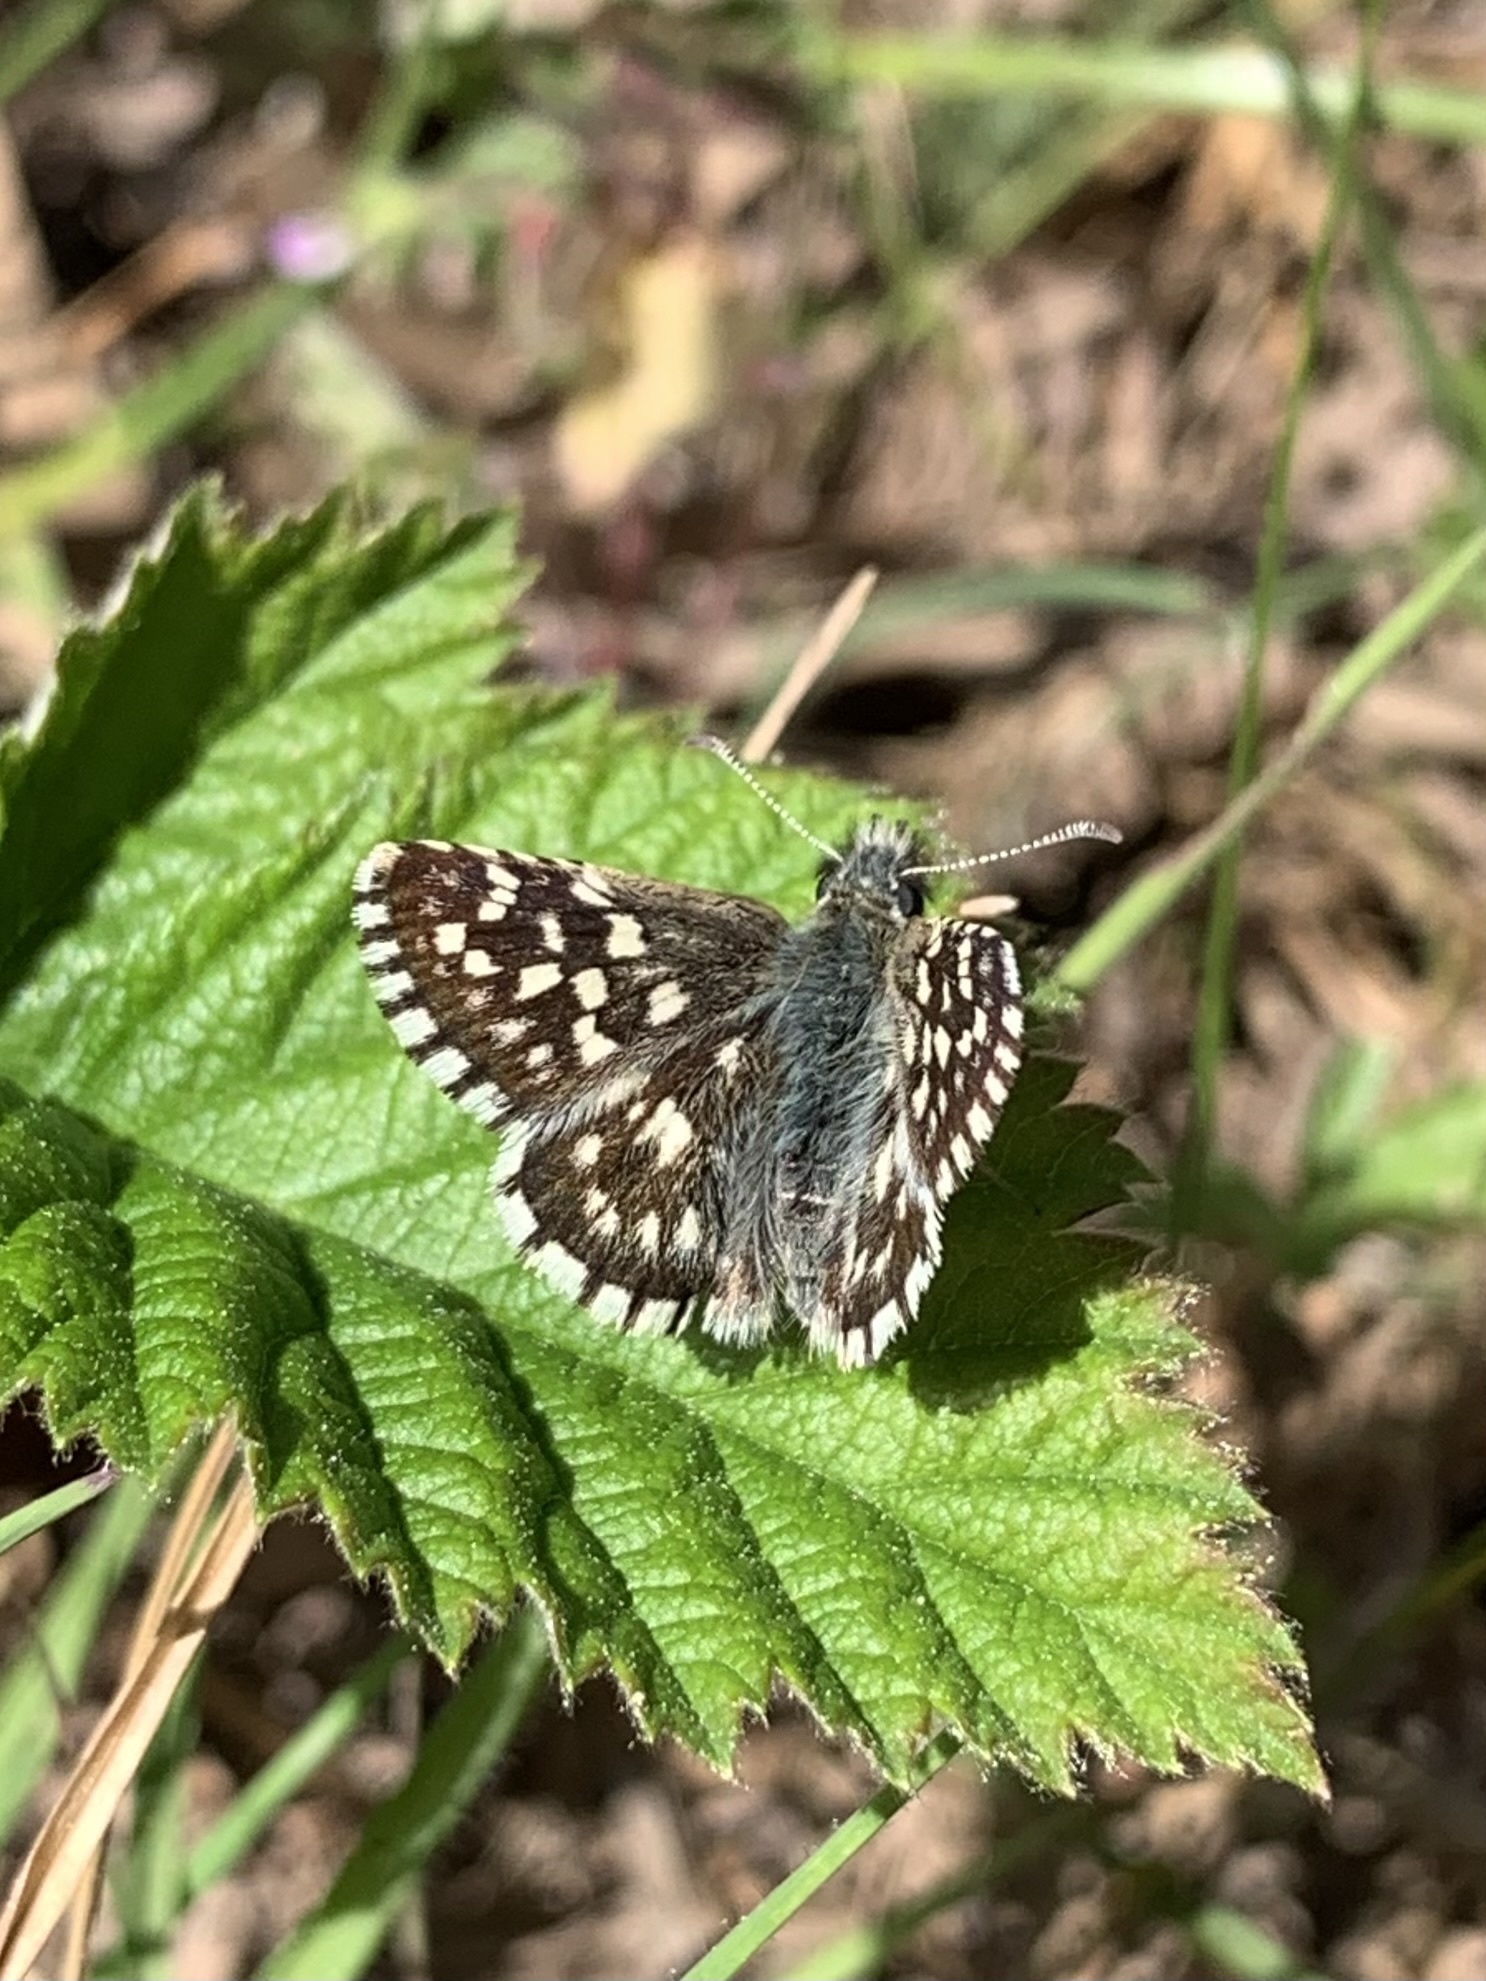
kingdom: Animalia
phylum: Arthropoda
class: Insecta
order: Lepidoptera
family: Hesperiidae
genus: Pyrgus
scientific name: Pyrgus malvae
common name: Grizzled skipper
